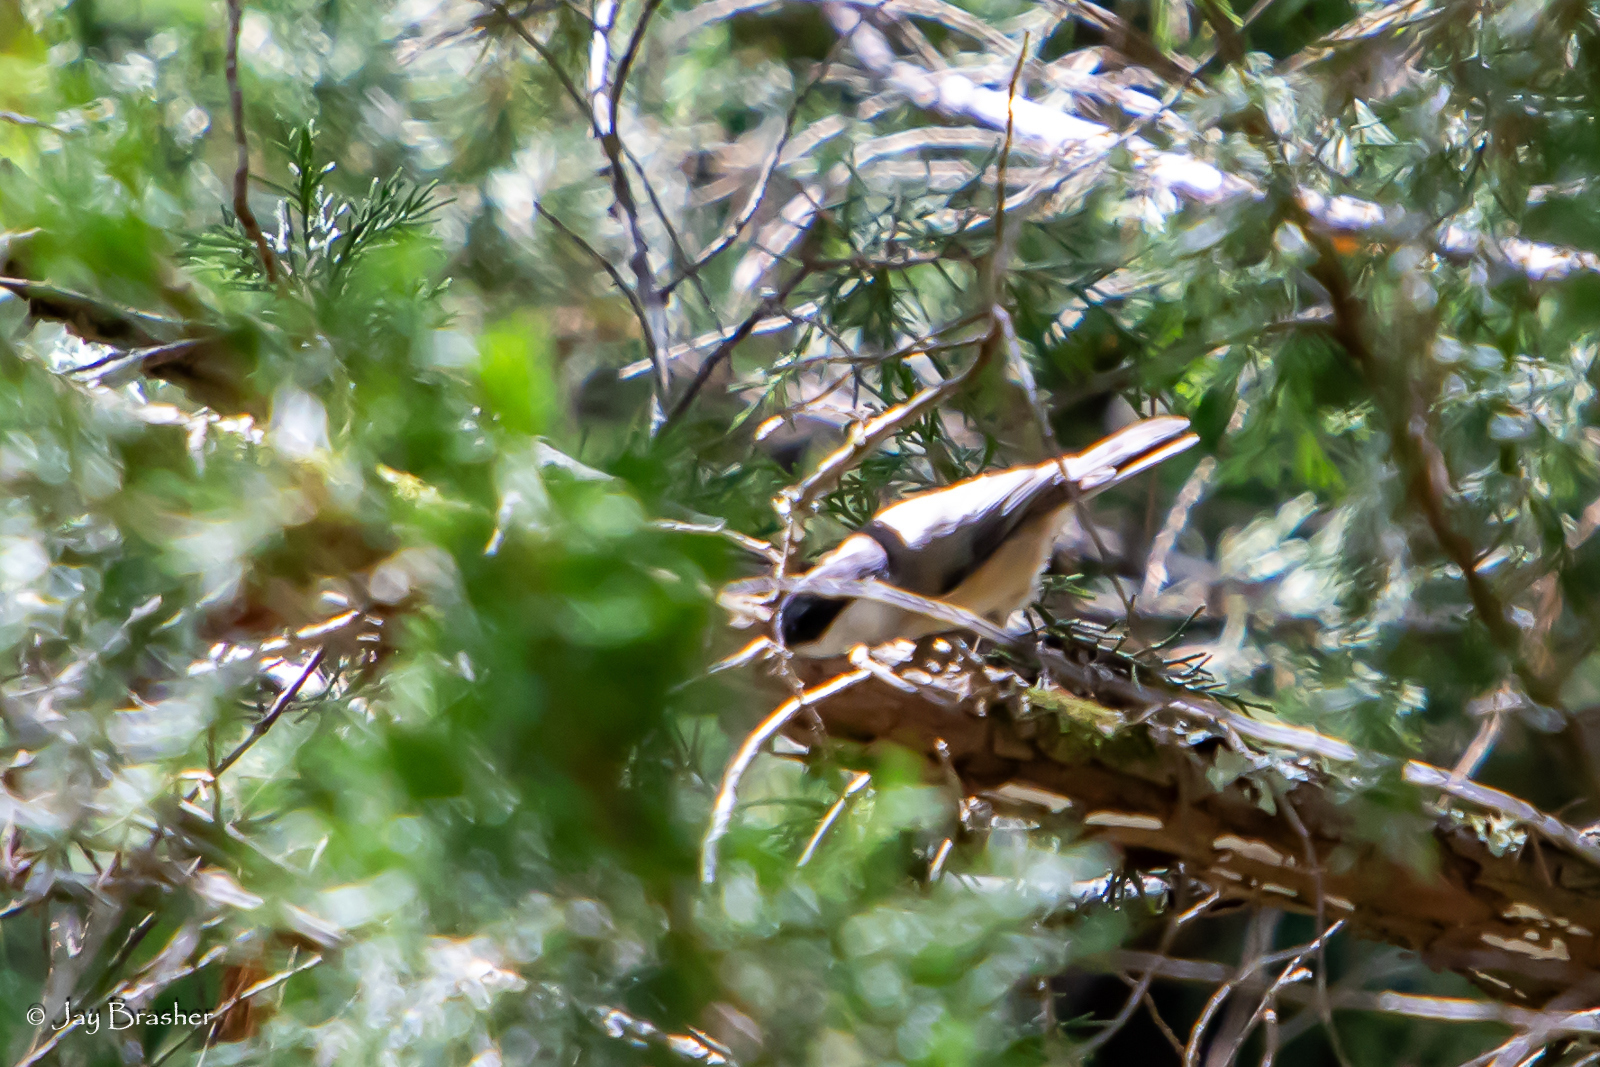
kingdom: Animalia
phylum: Chordata
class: Aves
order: Passeriformes
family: Paridae
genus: Poecile
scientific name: Poecile carolinensis
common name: Carolina chickadee
